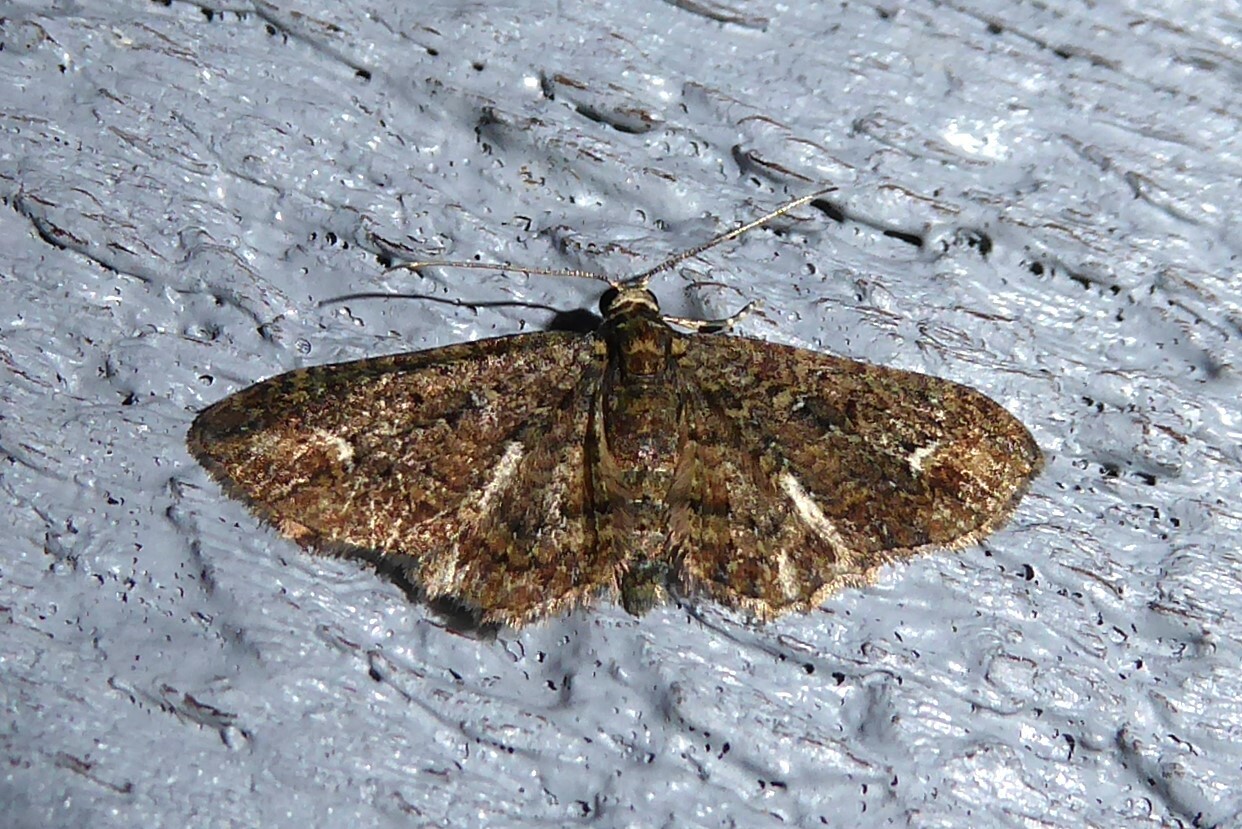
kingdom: Animalia
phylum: Arthropoda
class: Insecta
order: Lepidoptera
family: Geometridae
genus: Pasiphilodes
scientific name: Pasiphilodes testulata
